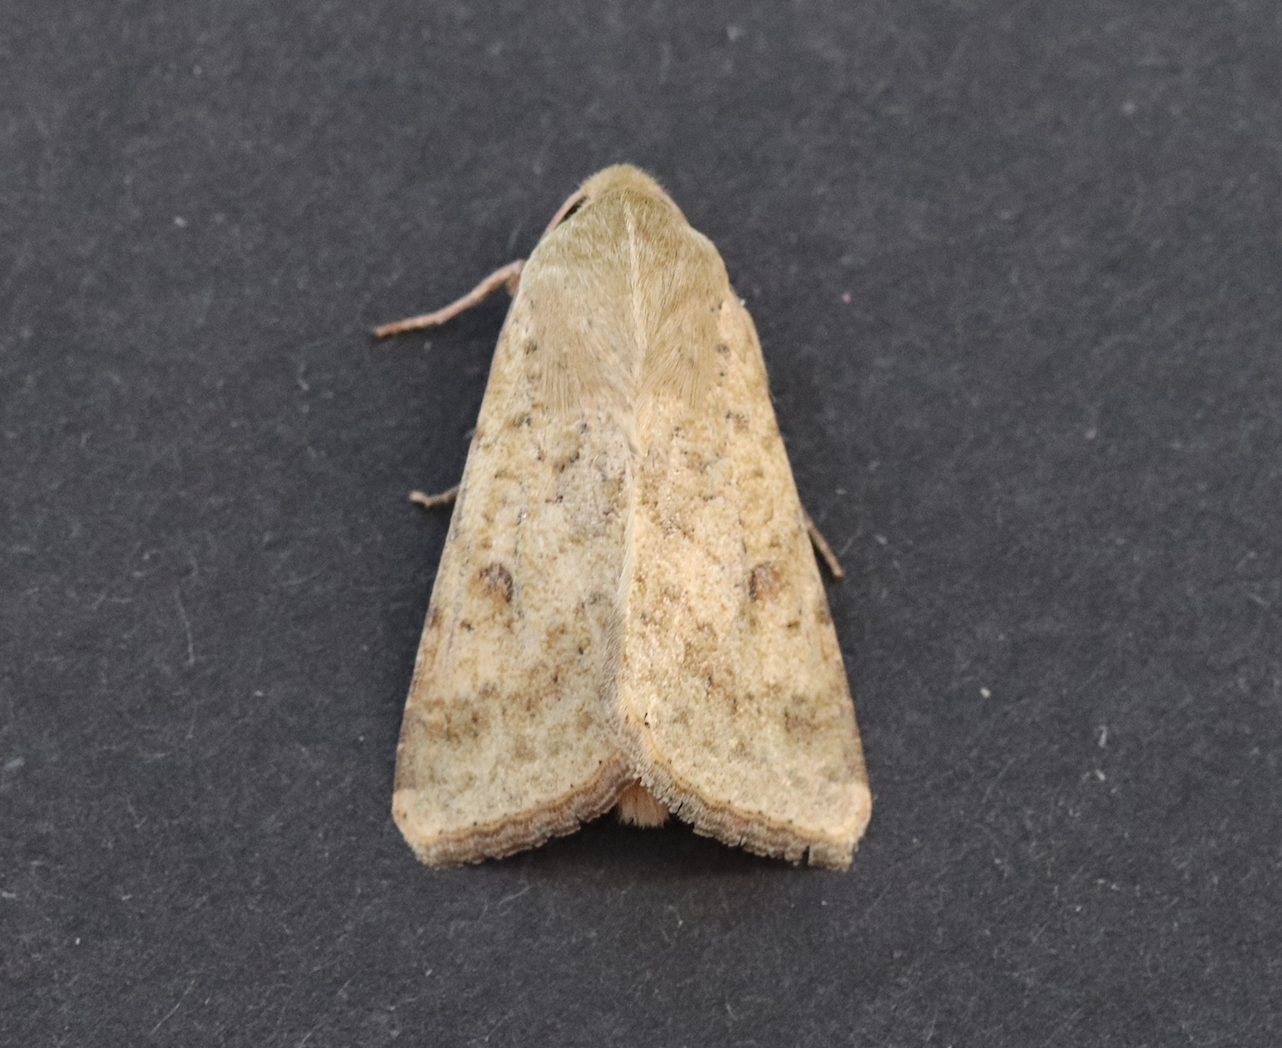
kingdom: Animalia
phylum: Arthropoda
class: Insecta
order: Lepidoptera
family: Noctuidae
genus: Helicoverpa
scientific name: Helicoverpa armigera
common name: Cotton bollworm
